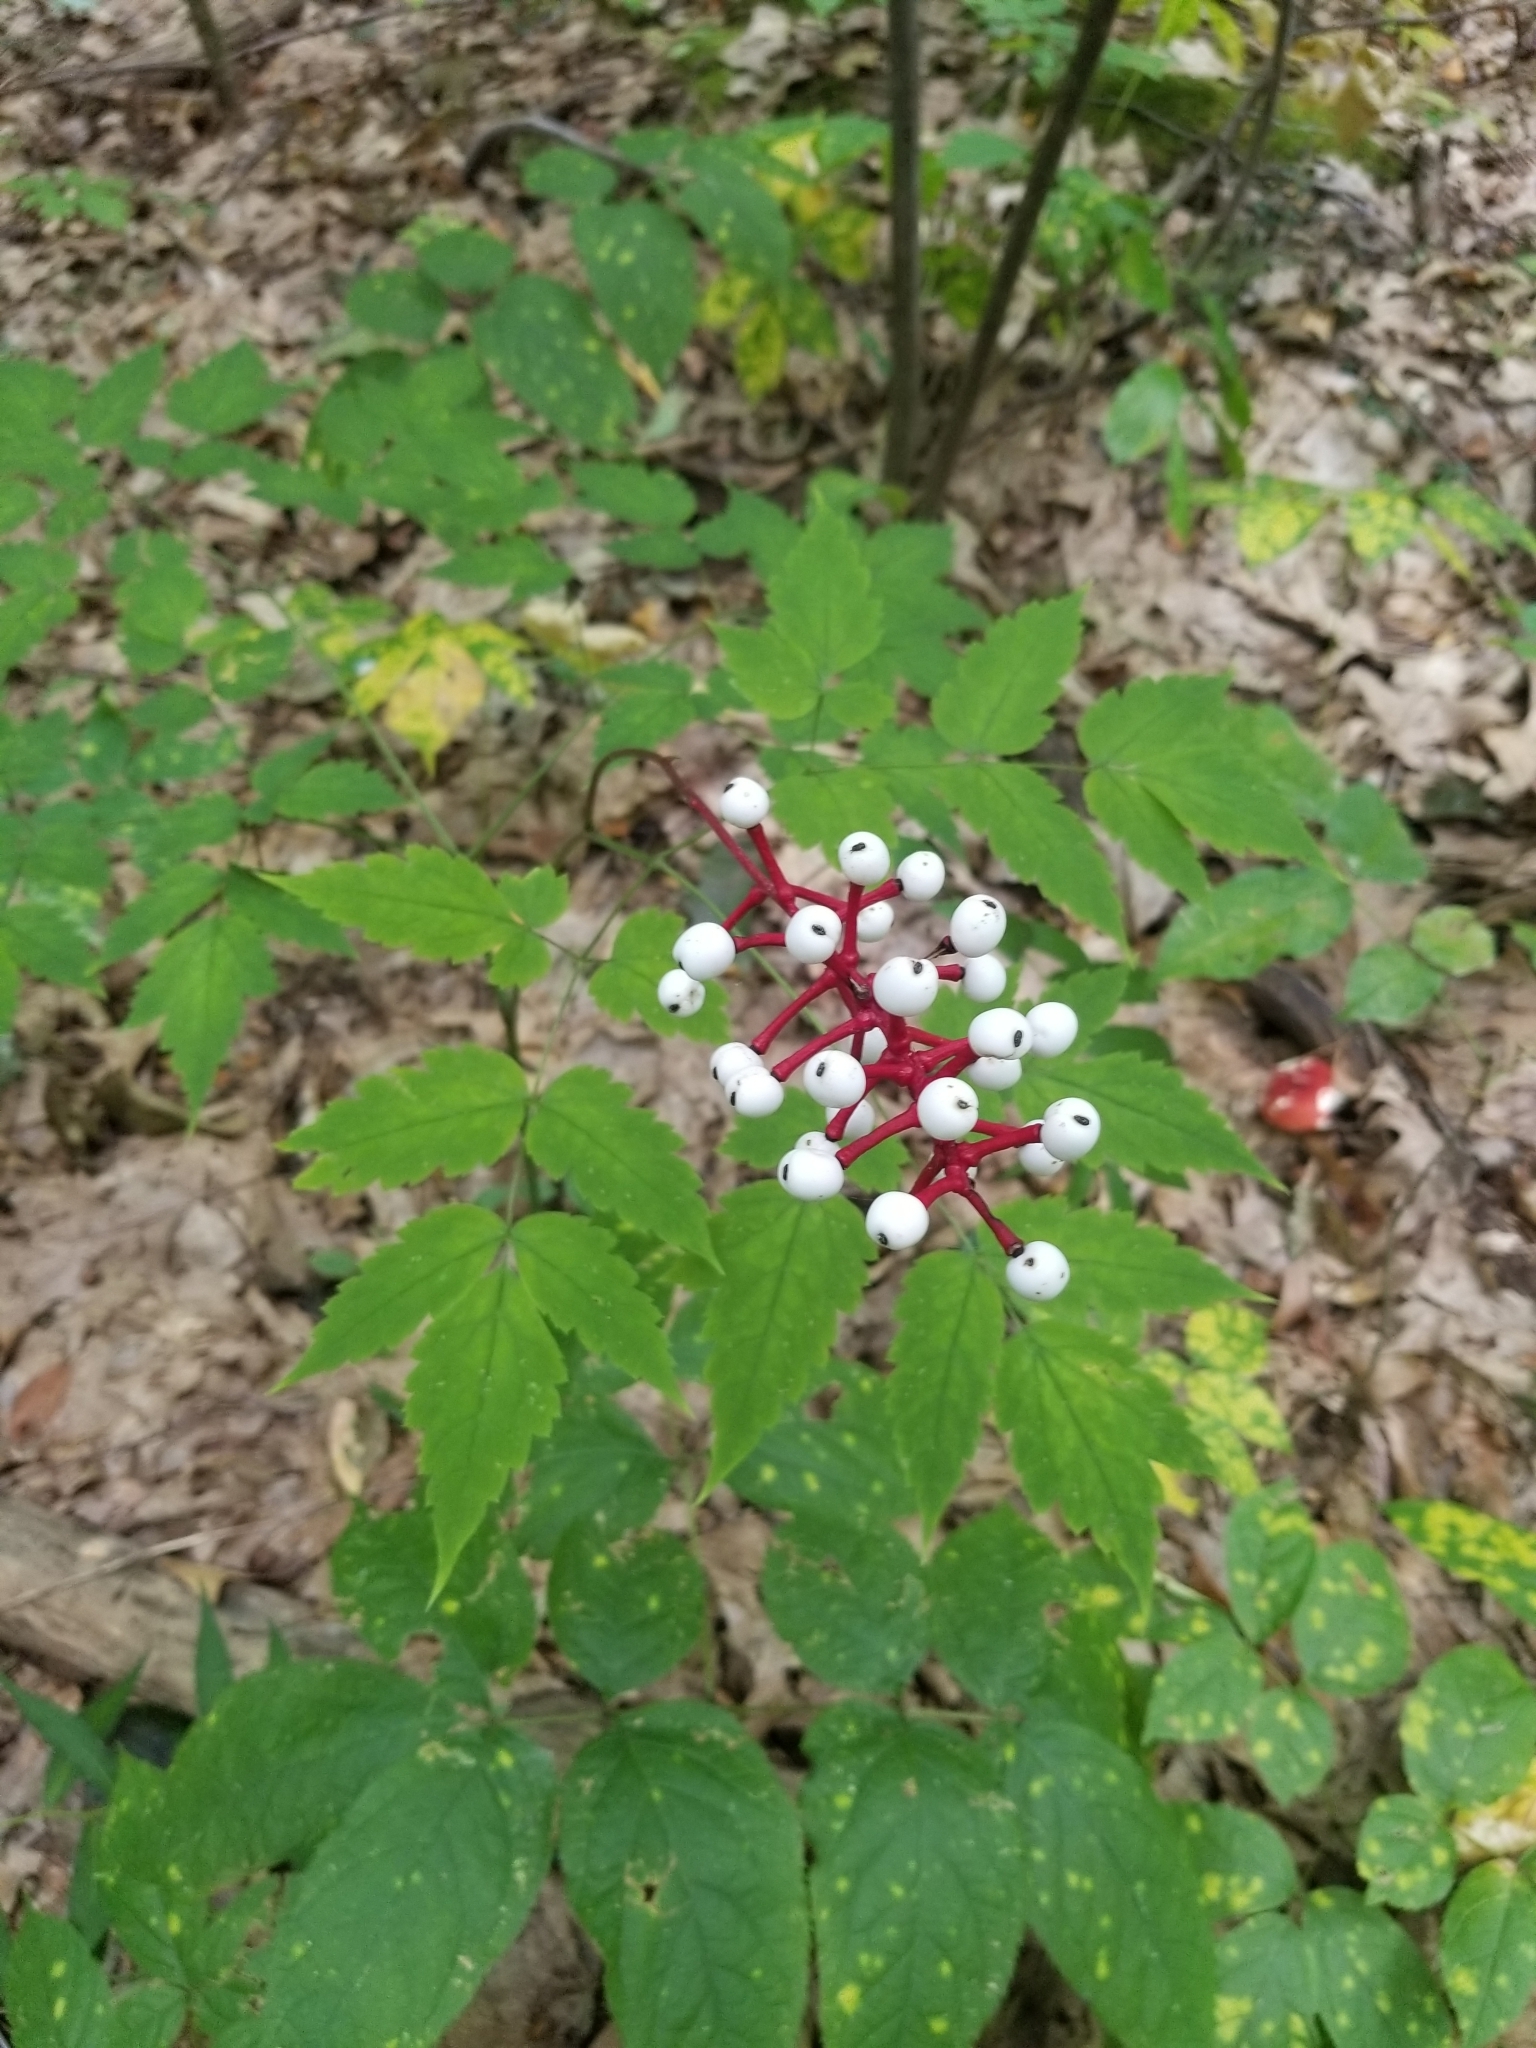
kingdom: Plantae
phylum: Tracheophyta
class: Magnoliopsida
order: Ranunculales
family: Ranunculaceae
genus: Actaea
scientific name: Actaea pachypoda
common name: Doll's-eyes
